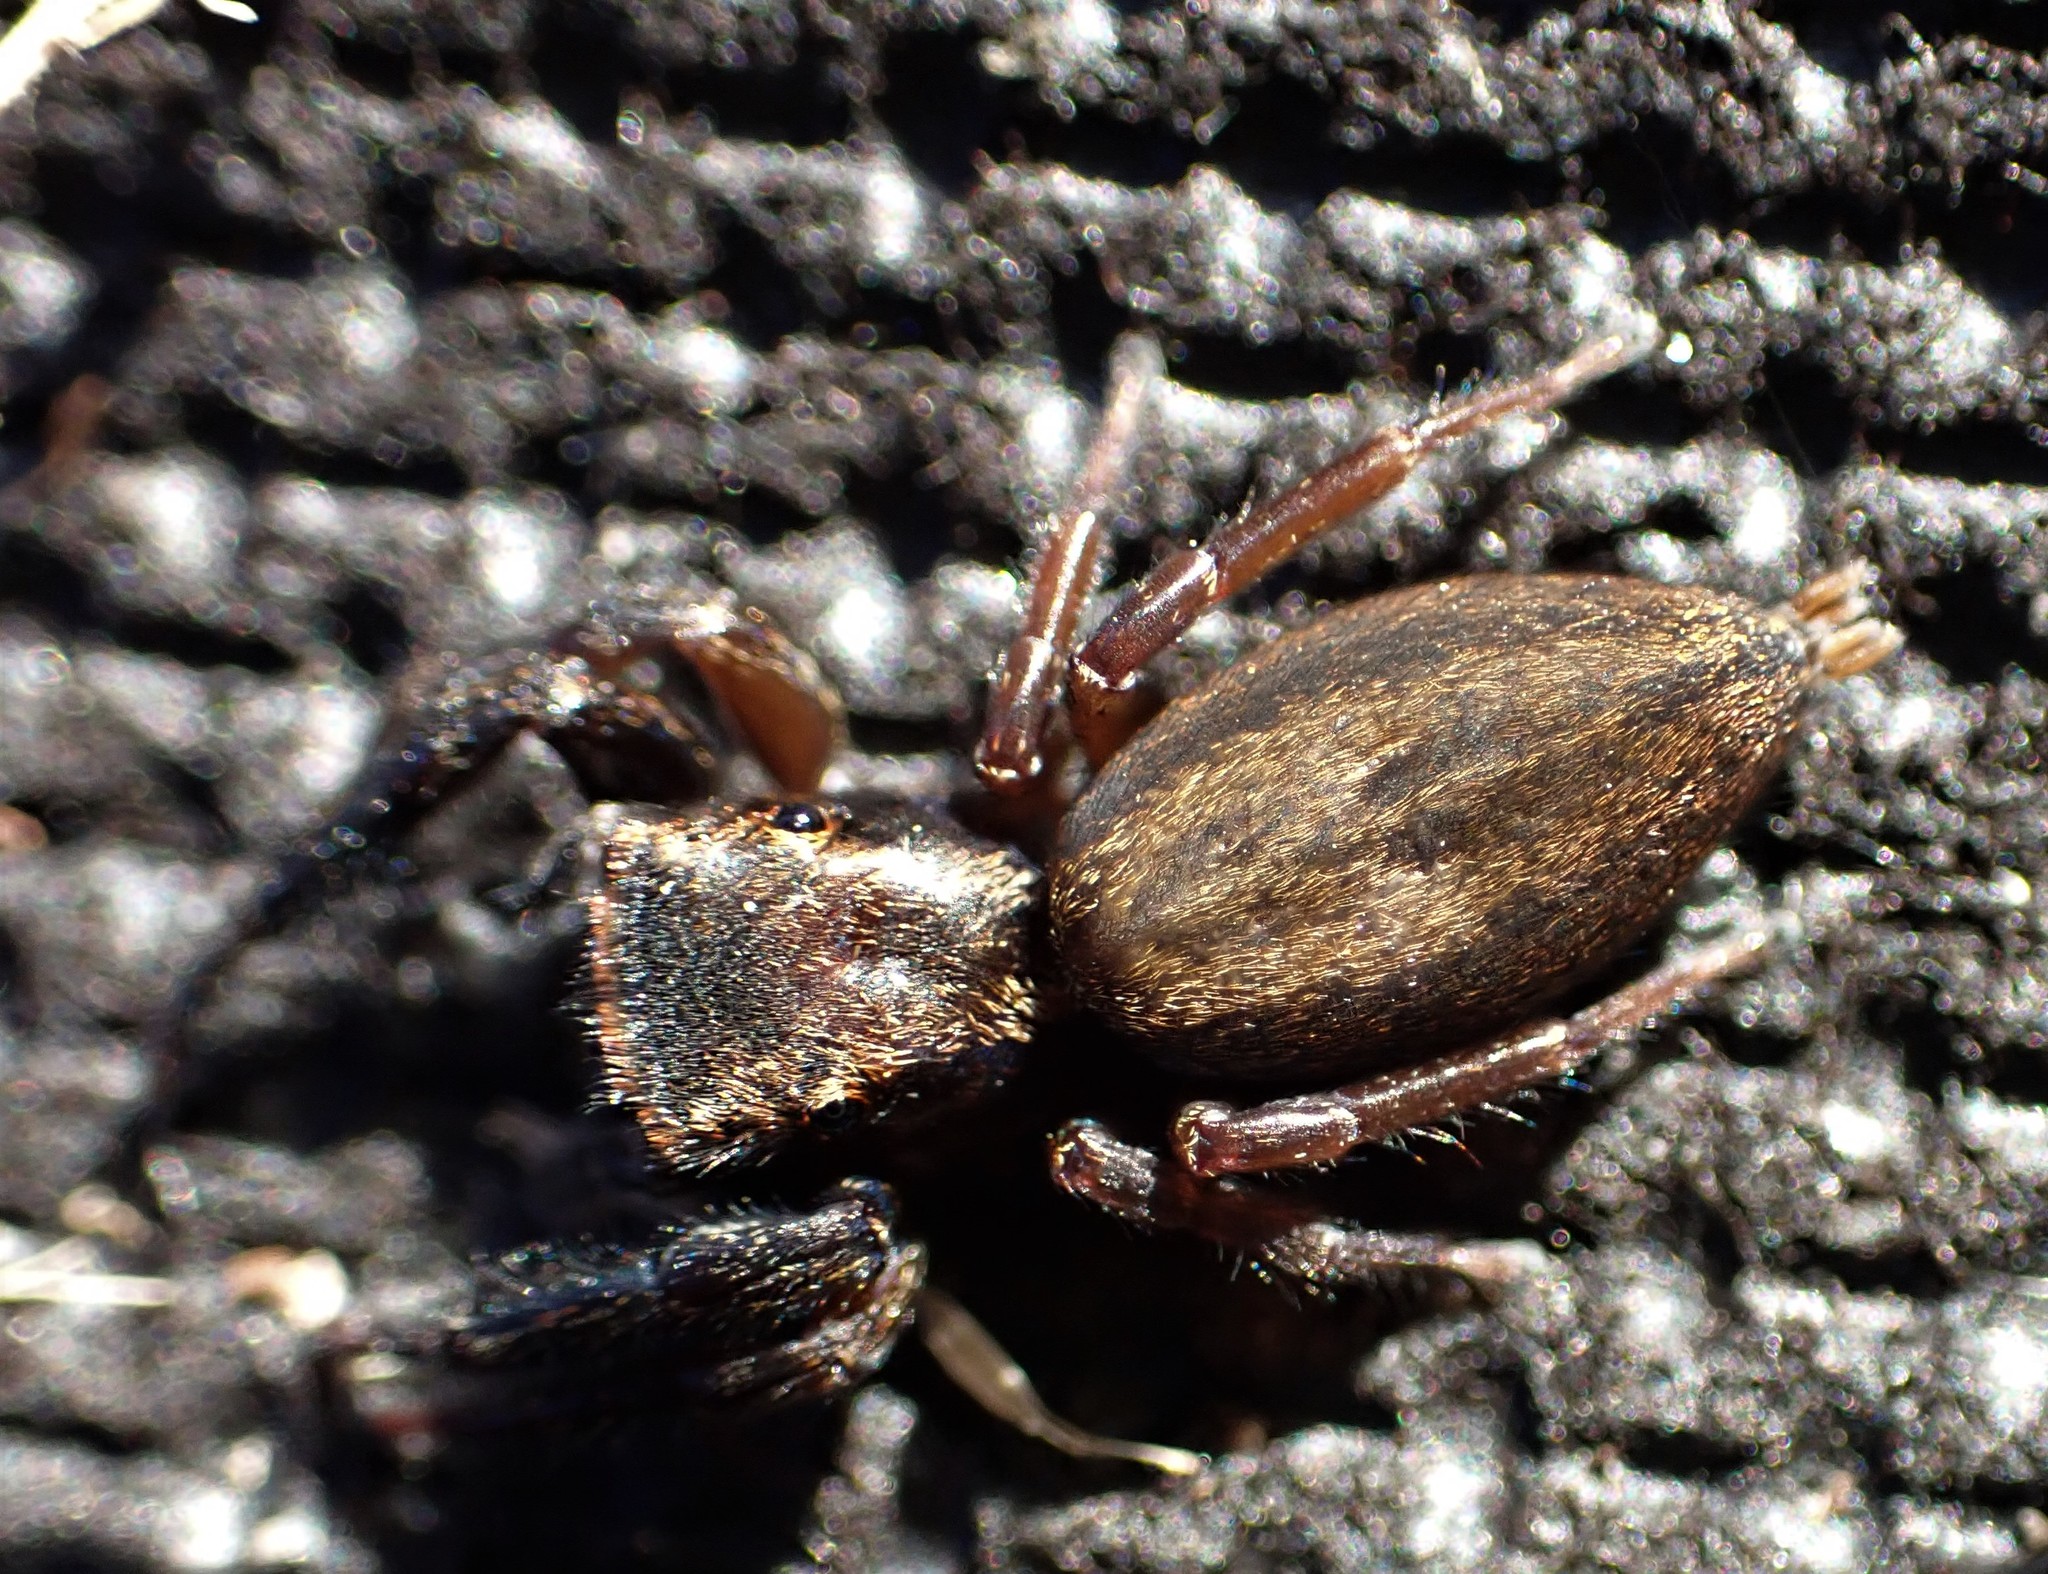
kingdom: Animalia
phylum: Arthropoda
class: Arachnida
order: Araneae
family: Salticidae
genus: Trite
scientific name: Trite auricoma
